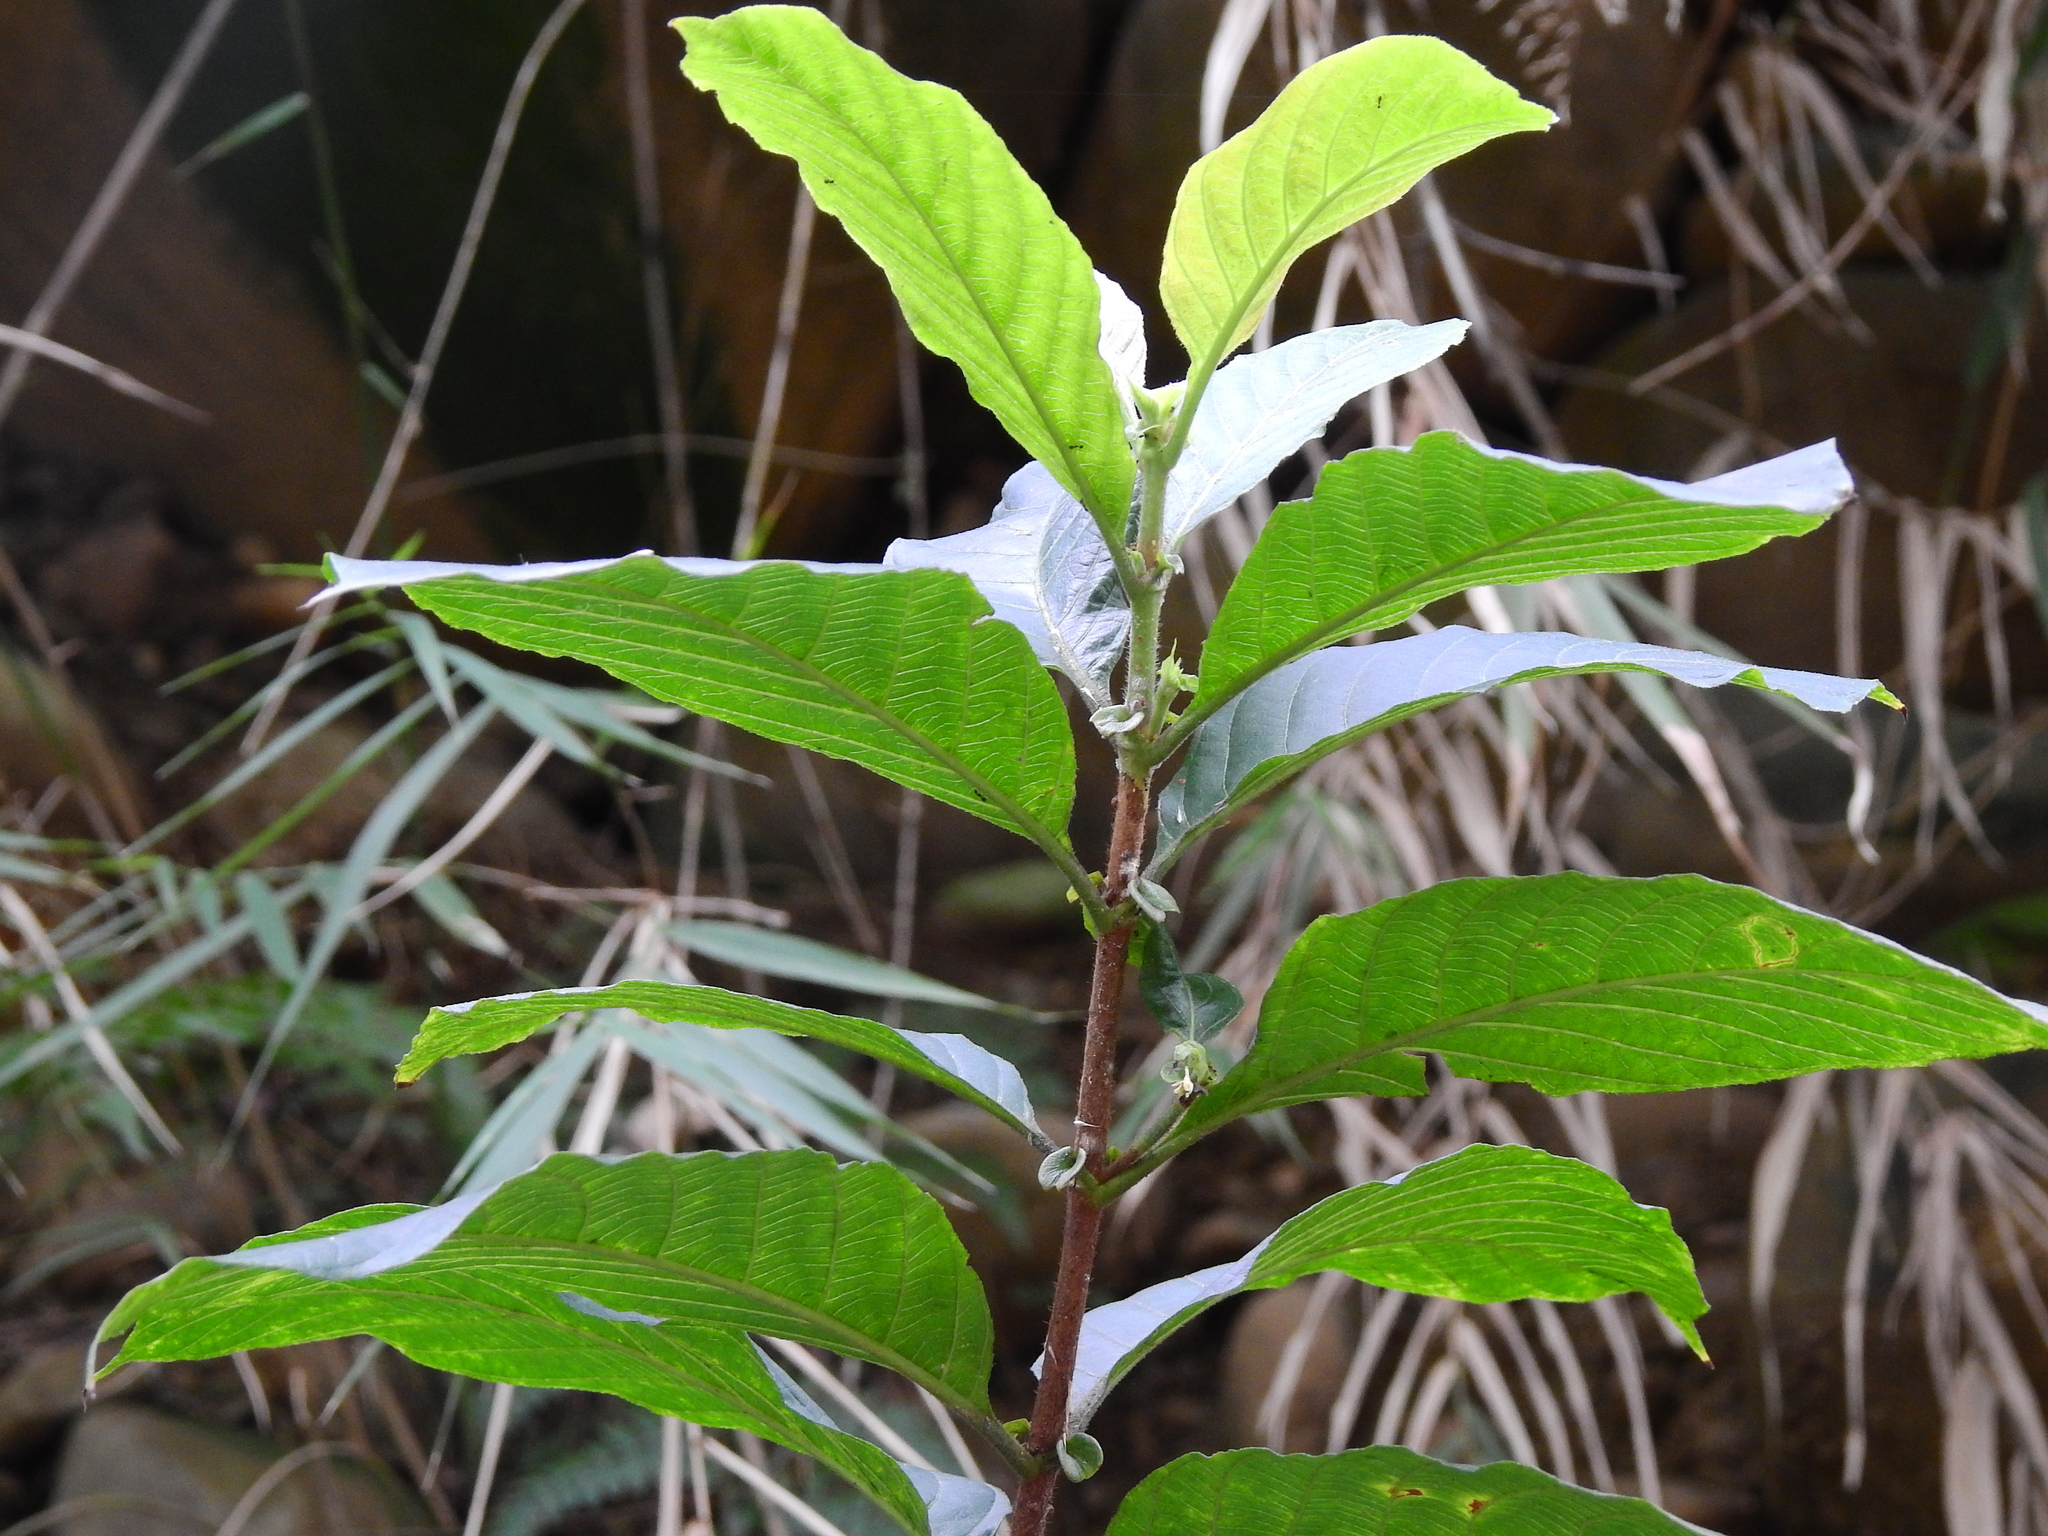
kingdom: Plantae
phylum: Tracheophyta
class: Magnoliopsida
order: Gentianales
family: Rubiaceae
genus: Wendlandia
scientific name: Wendlandia uvariifolia
